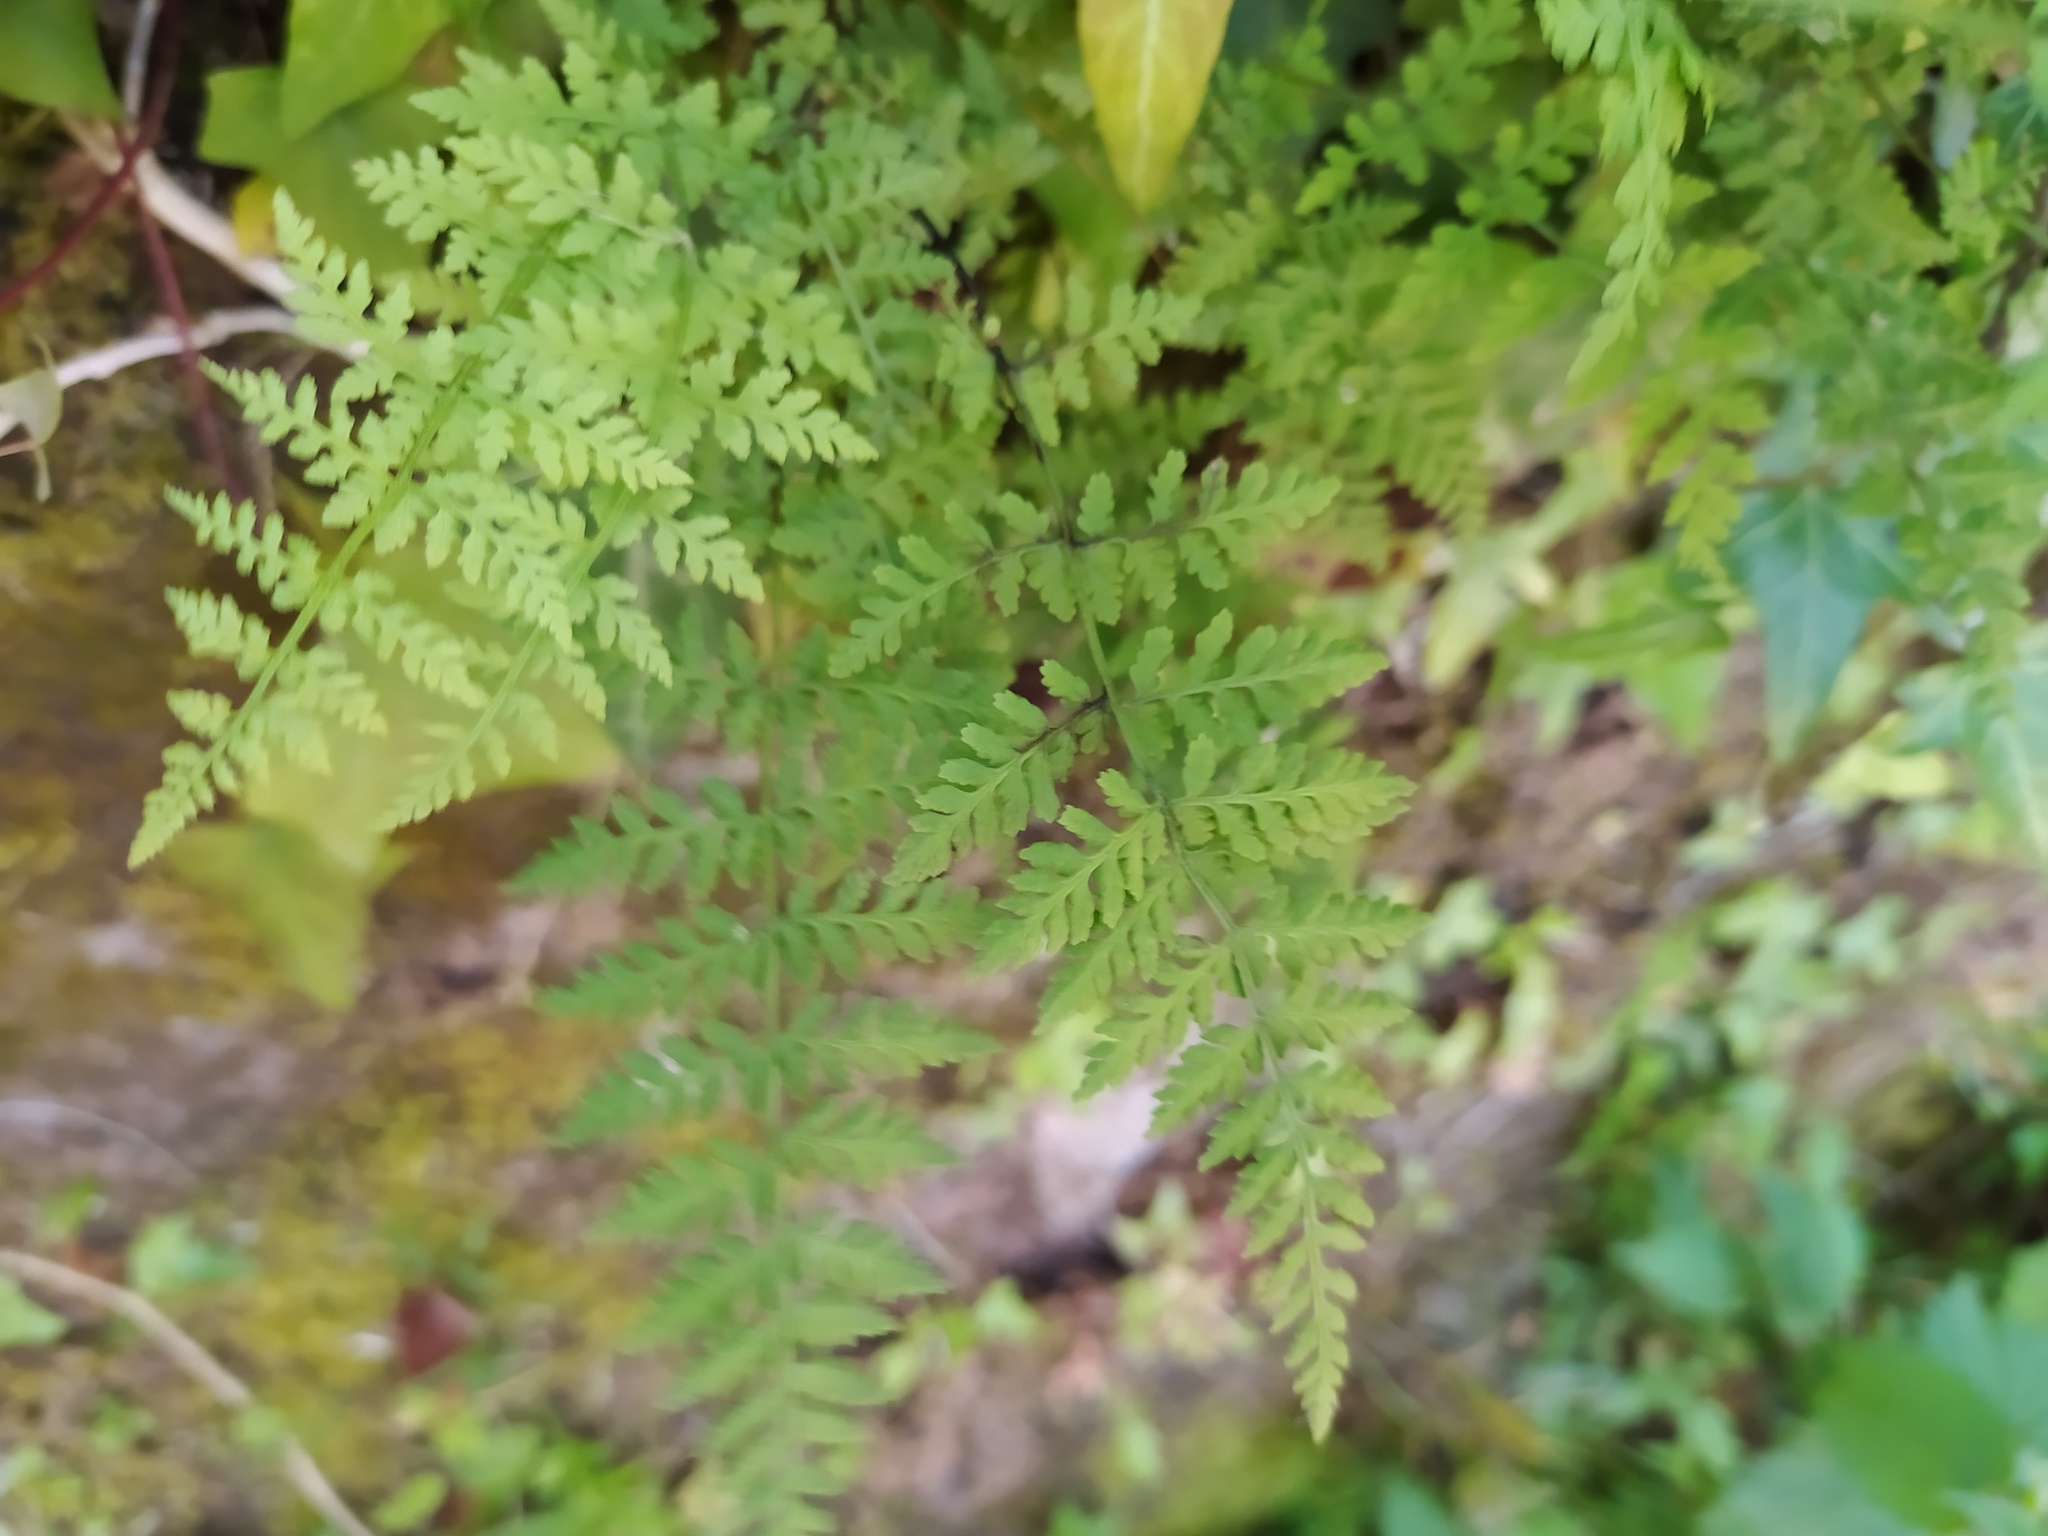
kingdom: Plantae
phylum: Tracheophyta
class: Polypodiopsida
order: Polypodiales
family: Cystopteridaceae
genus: Cystopteris
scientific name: Cystopteris fragilis
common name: Brittle bladder fern
